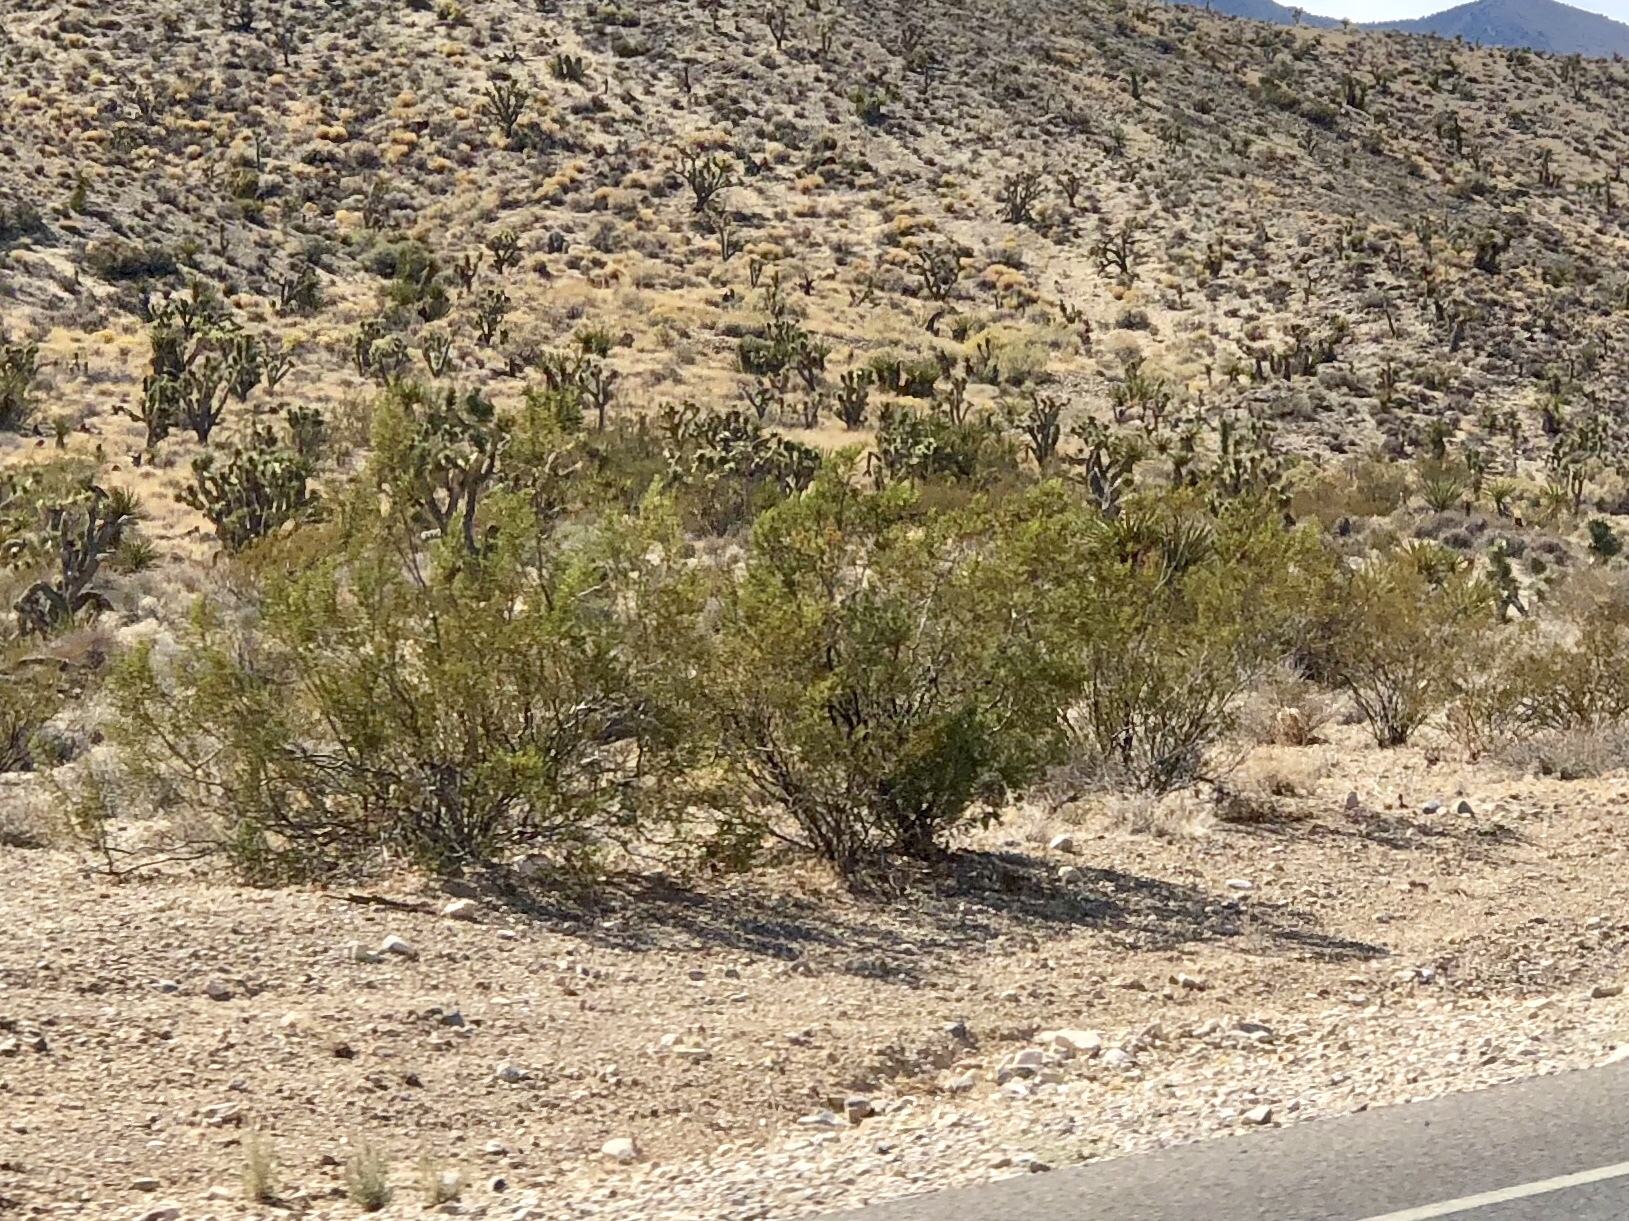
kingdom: Plantae
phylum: Tracheophyta
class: Magnoliopsida
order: Zygophyllales
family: Zygophyllaceae
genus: Larrea
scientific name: Larrea tridentata
